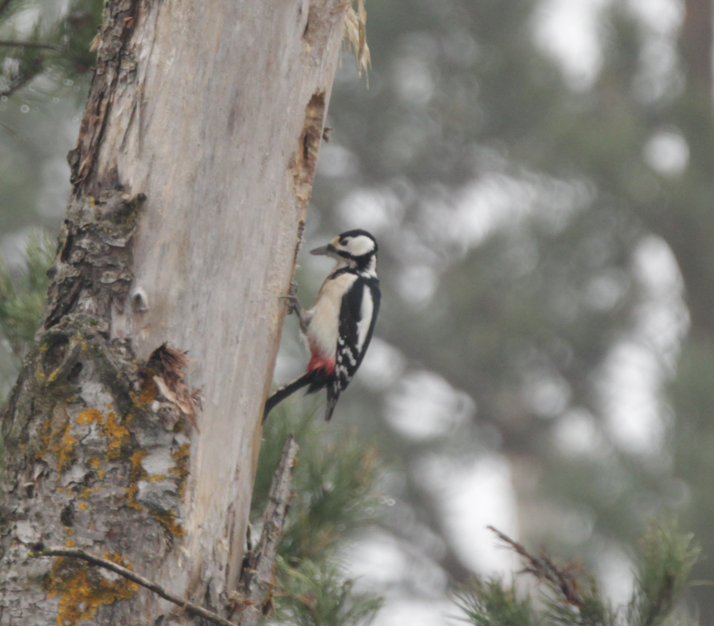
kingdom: Animalia
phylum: Chordata
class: Aves
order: Piciformes
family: Picidae
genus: Dendrocopos
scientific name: Dendrocopos major
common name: Great spotted woodpecker
